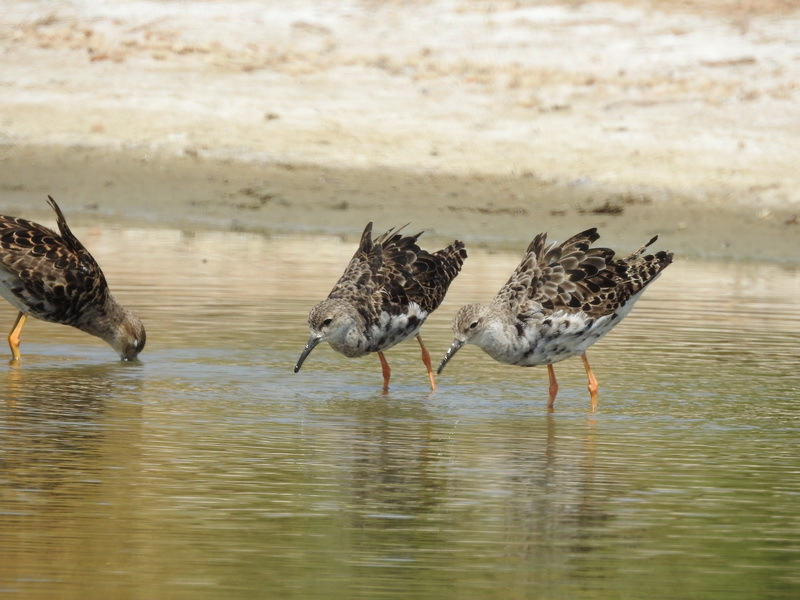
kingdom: Animalia
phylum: Chordata
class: Aves
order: Charadriiformes
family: Scolopacidae
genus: Calidris
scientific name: Calidris pugnax
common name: Ruff
